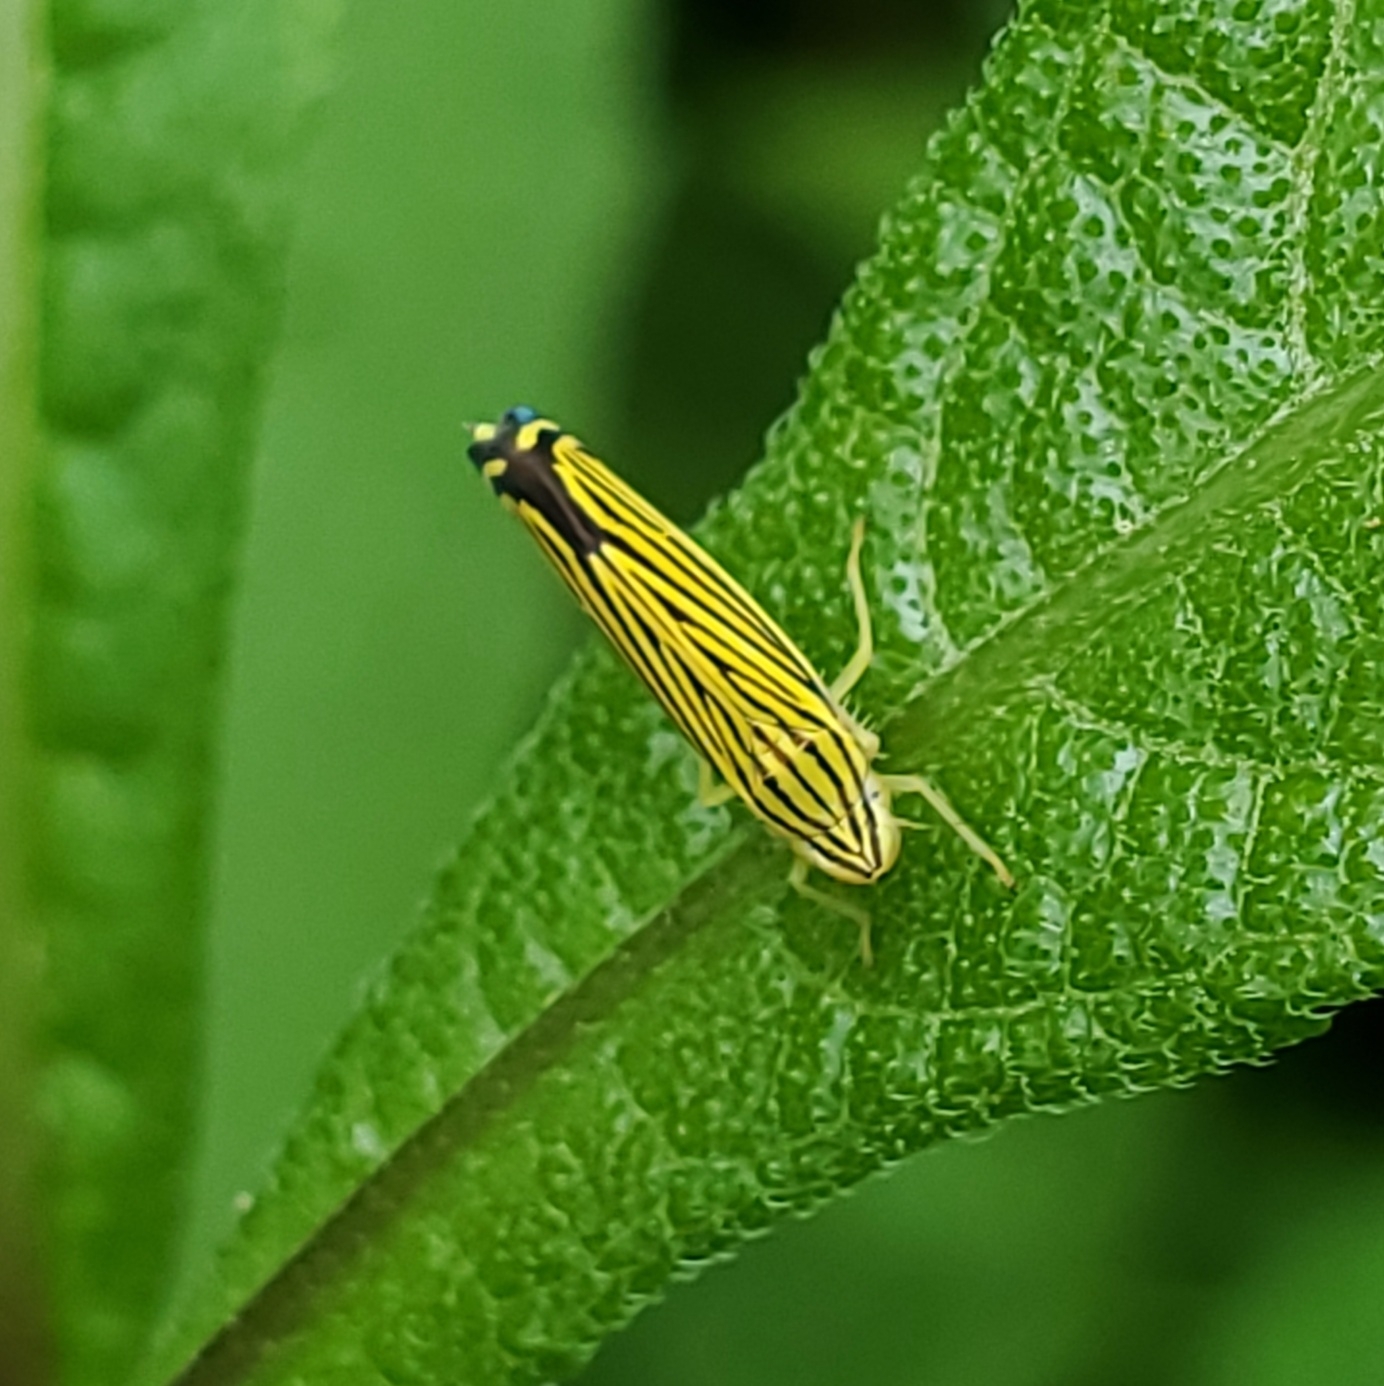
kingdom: Animalia
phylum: Arthropoda
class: Insecta
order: Hemiptera
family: Cicadellidae
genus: Sibovia
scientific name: Sibovia occatoria
